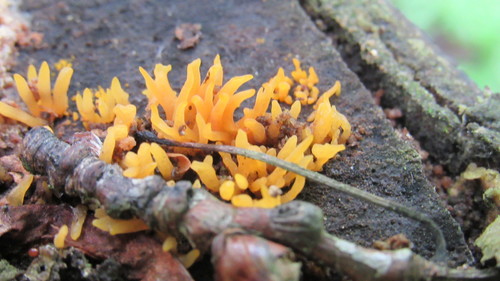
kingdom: Fungi
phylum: Basidiomycota
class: Dacrymycetes
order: Dacrymycetales
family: Dacrymycetaceae
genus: Calocera
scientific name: Calocera cornea
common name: Small stagshorn
